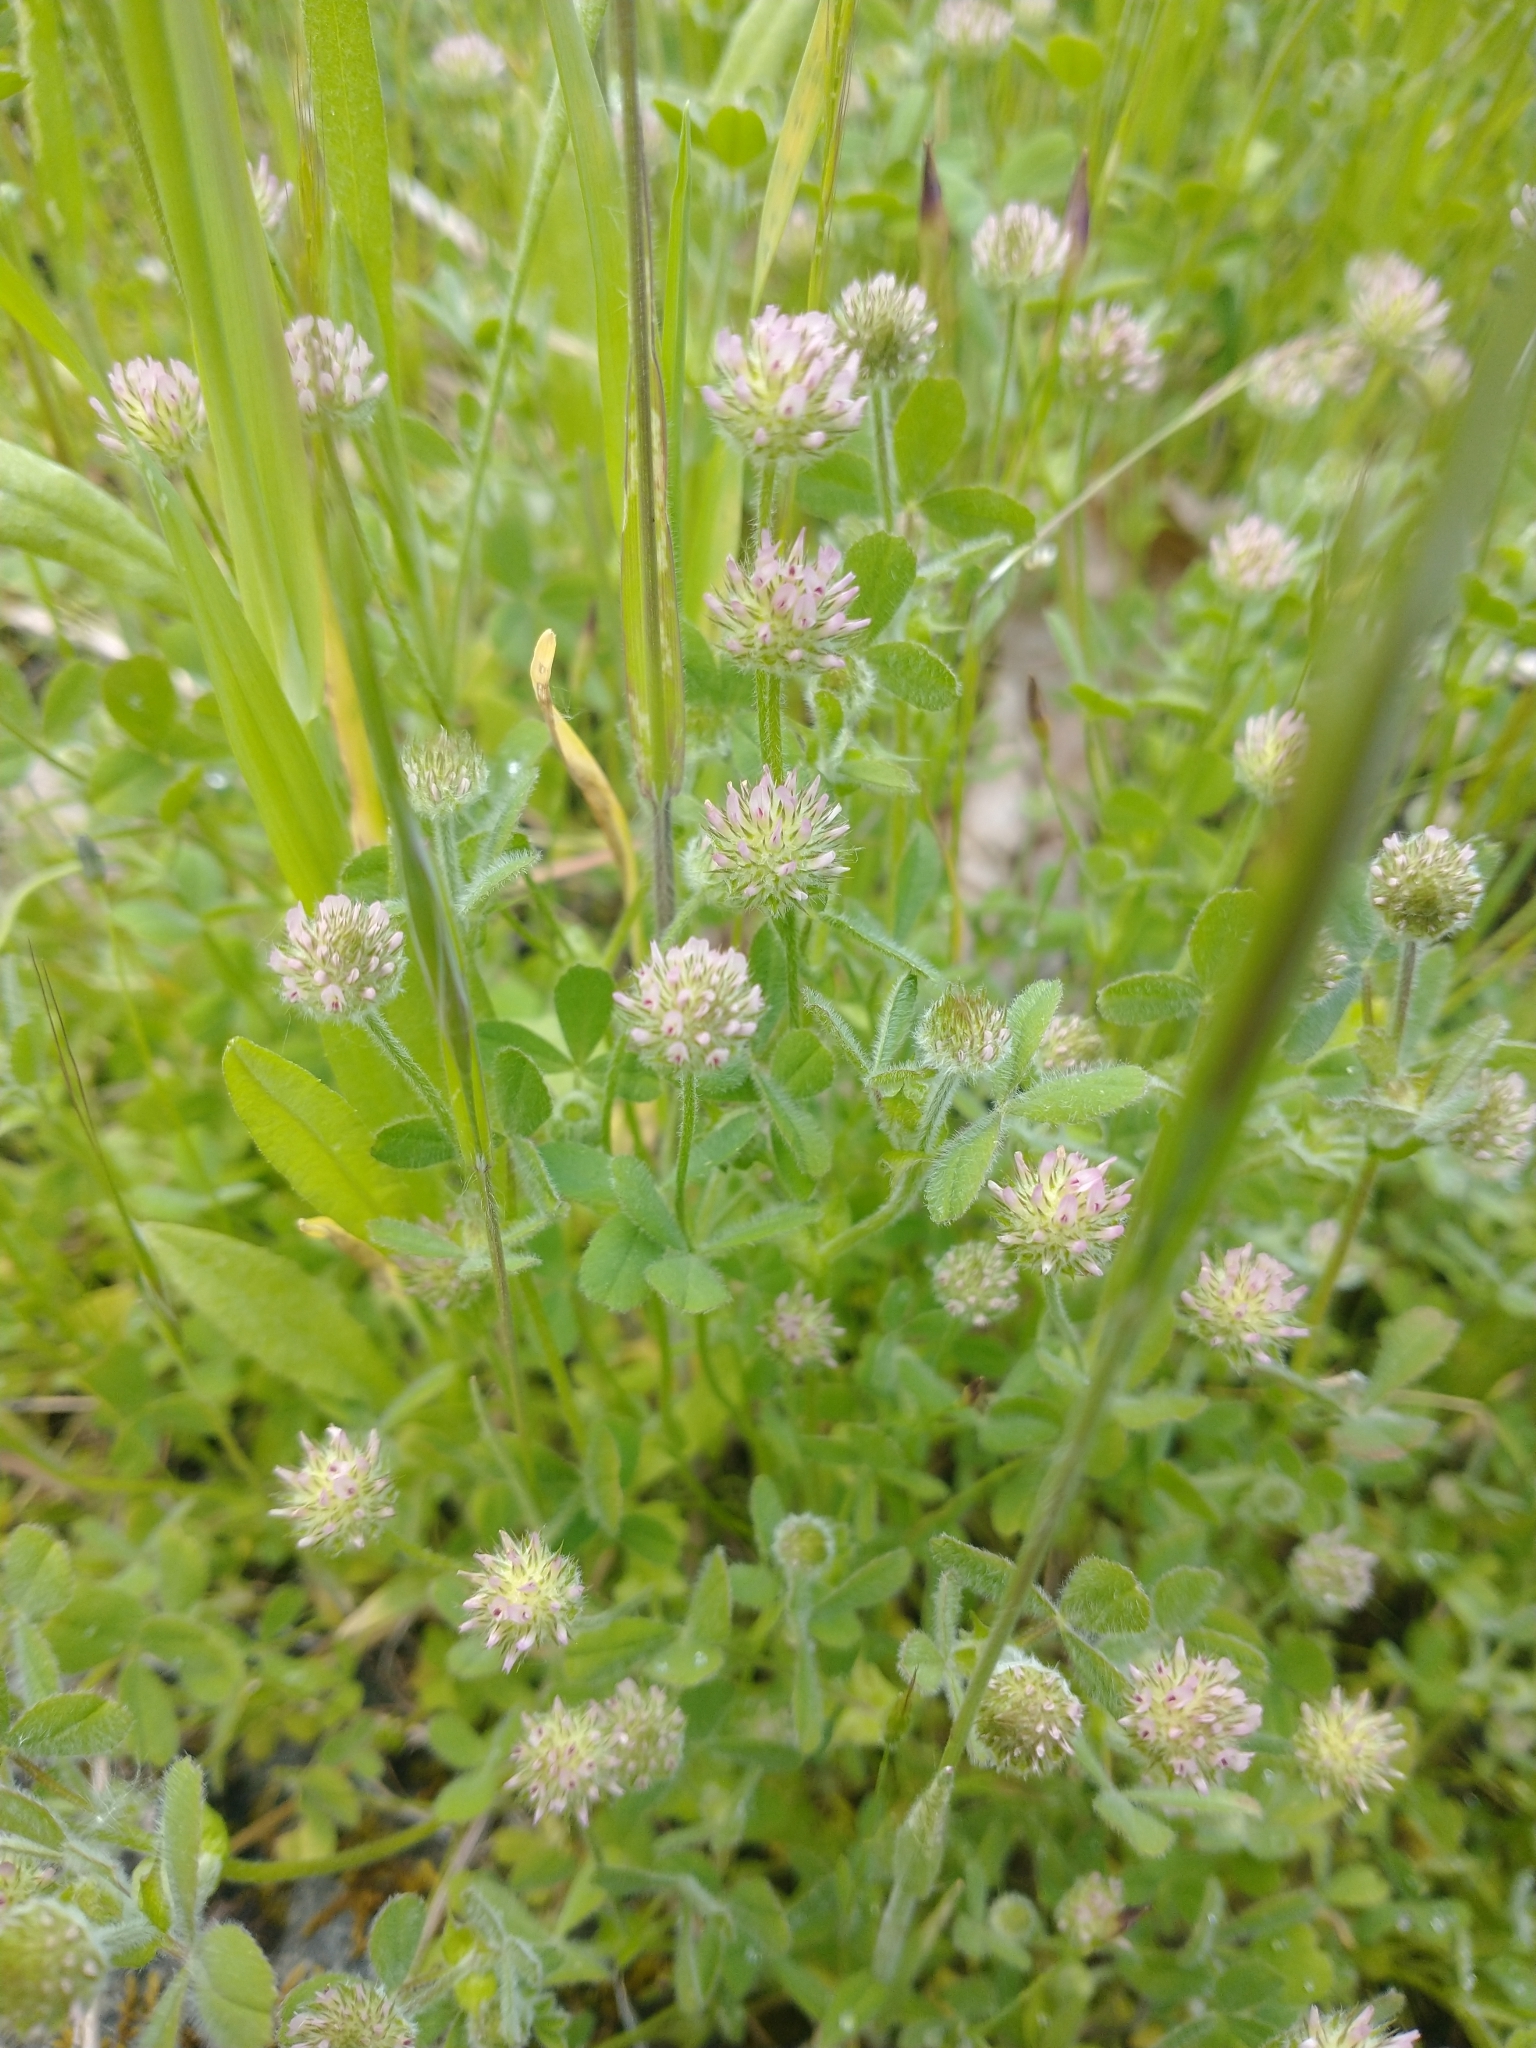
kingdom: Plantae
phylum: Tracheophyta
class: Magnoliopsida
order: Fabales
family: Fabaceae
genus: Trifolium
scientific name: Trifolium microcephalum
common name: Maiden clover
